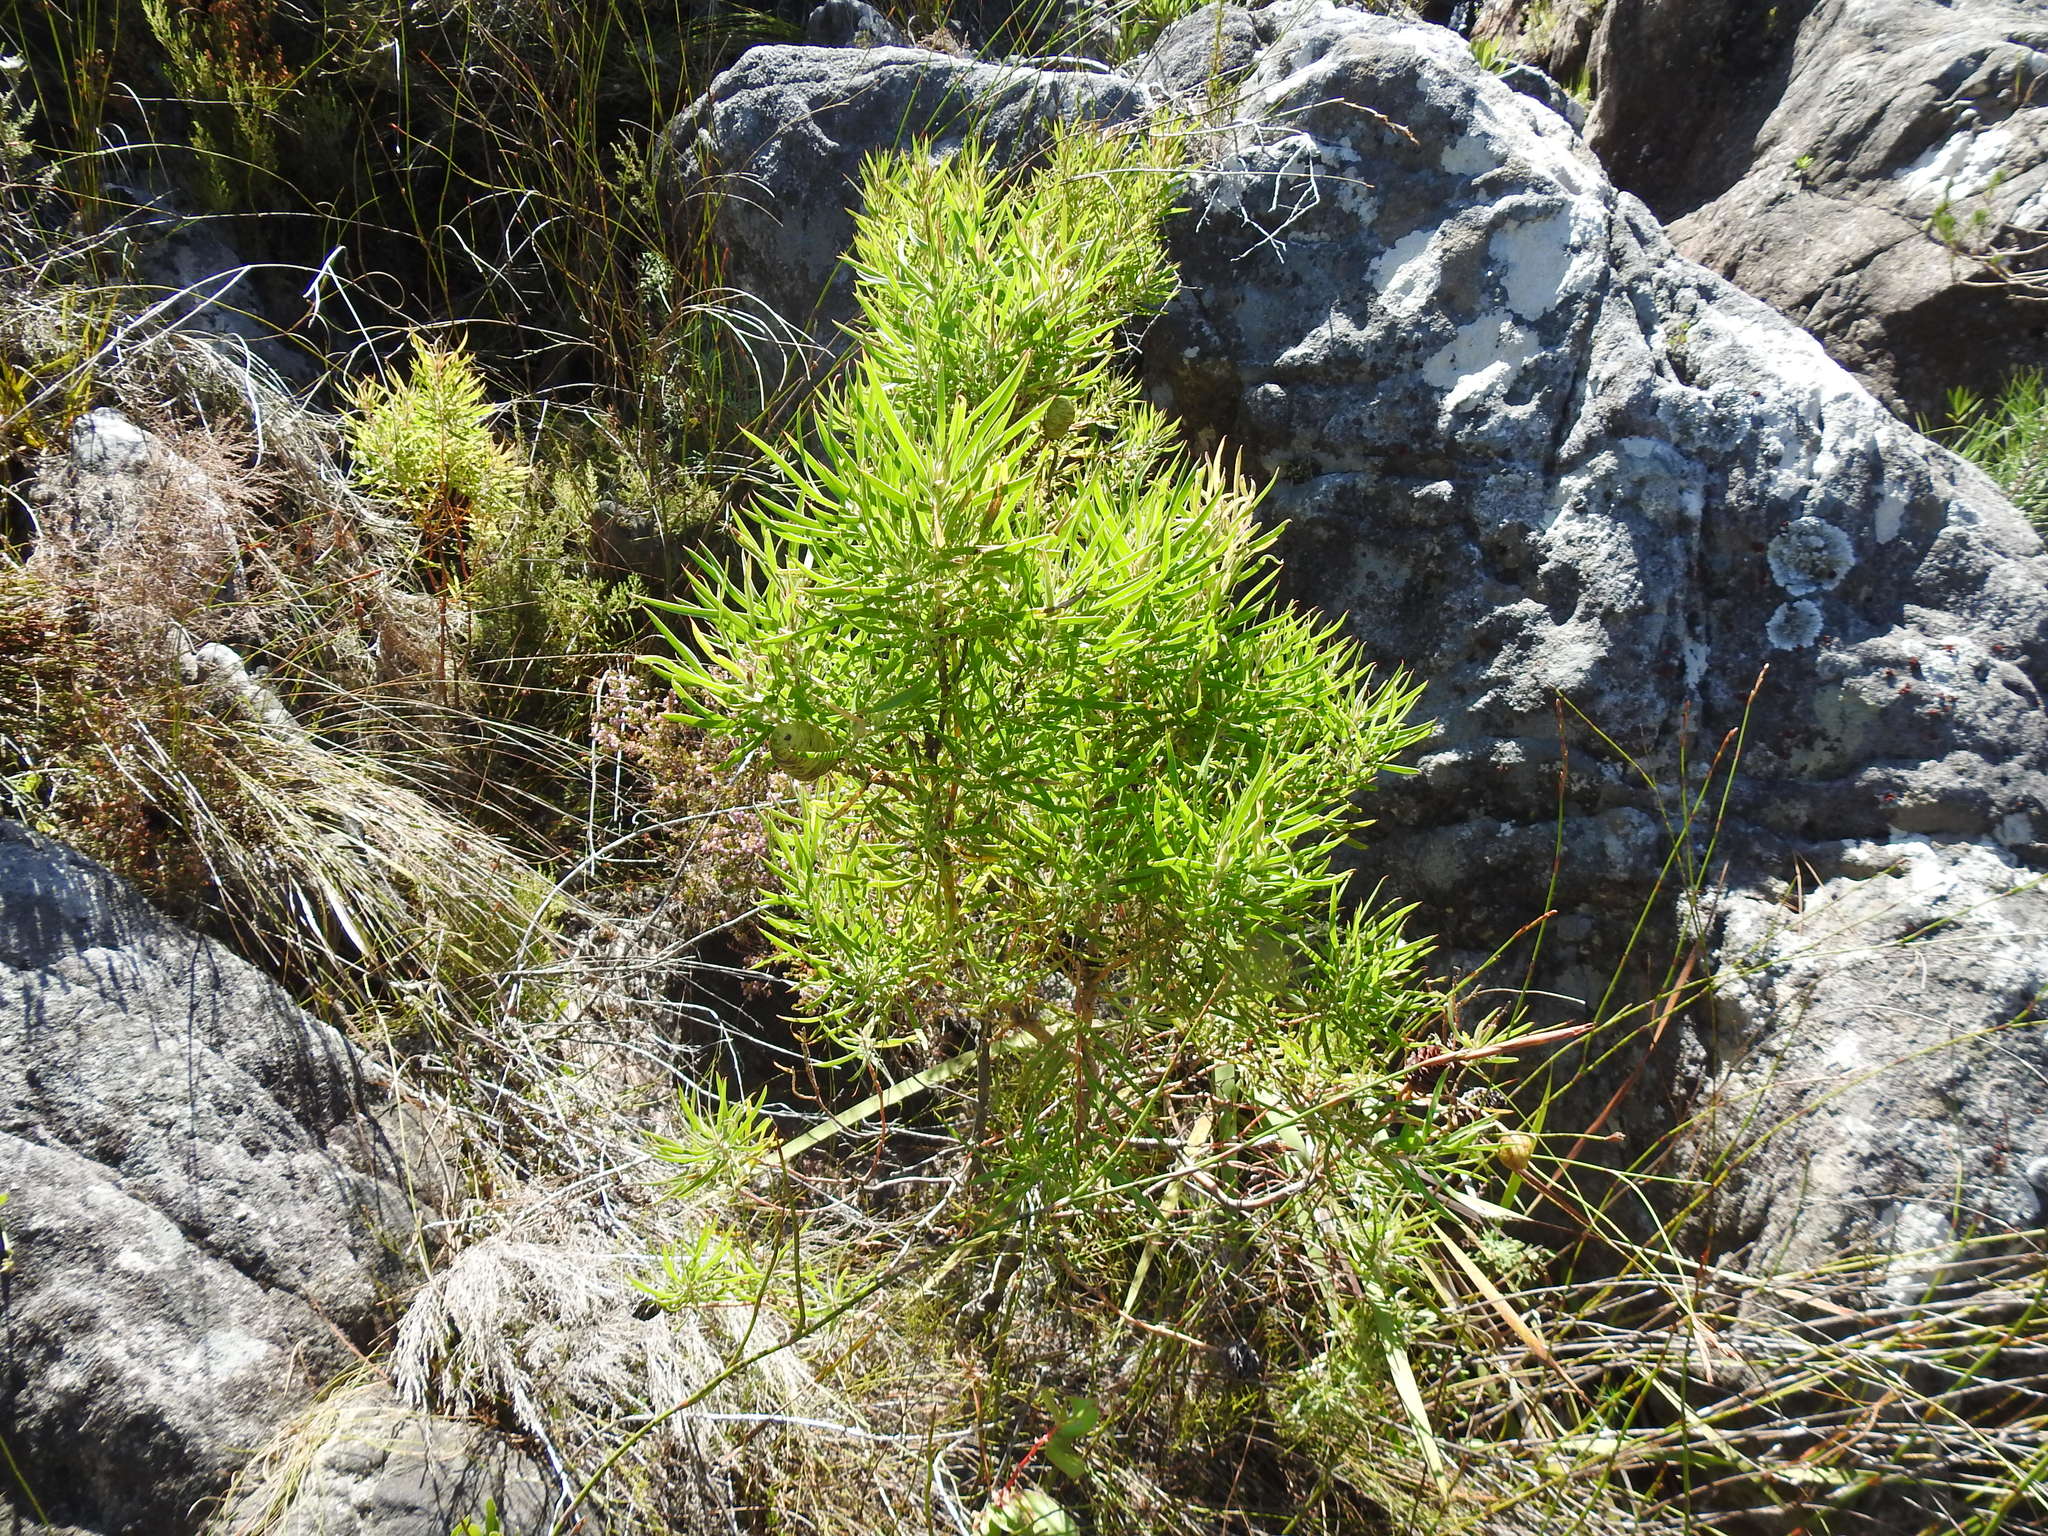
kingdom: Plantae
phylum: Tracheophyta
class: Magnoliopsida
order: Proteales
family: Proteaceae
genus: Leucadendron
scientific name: Leucadendron salicifolium
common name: Common stream conebush
